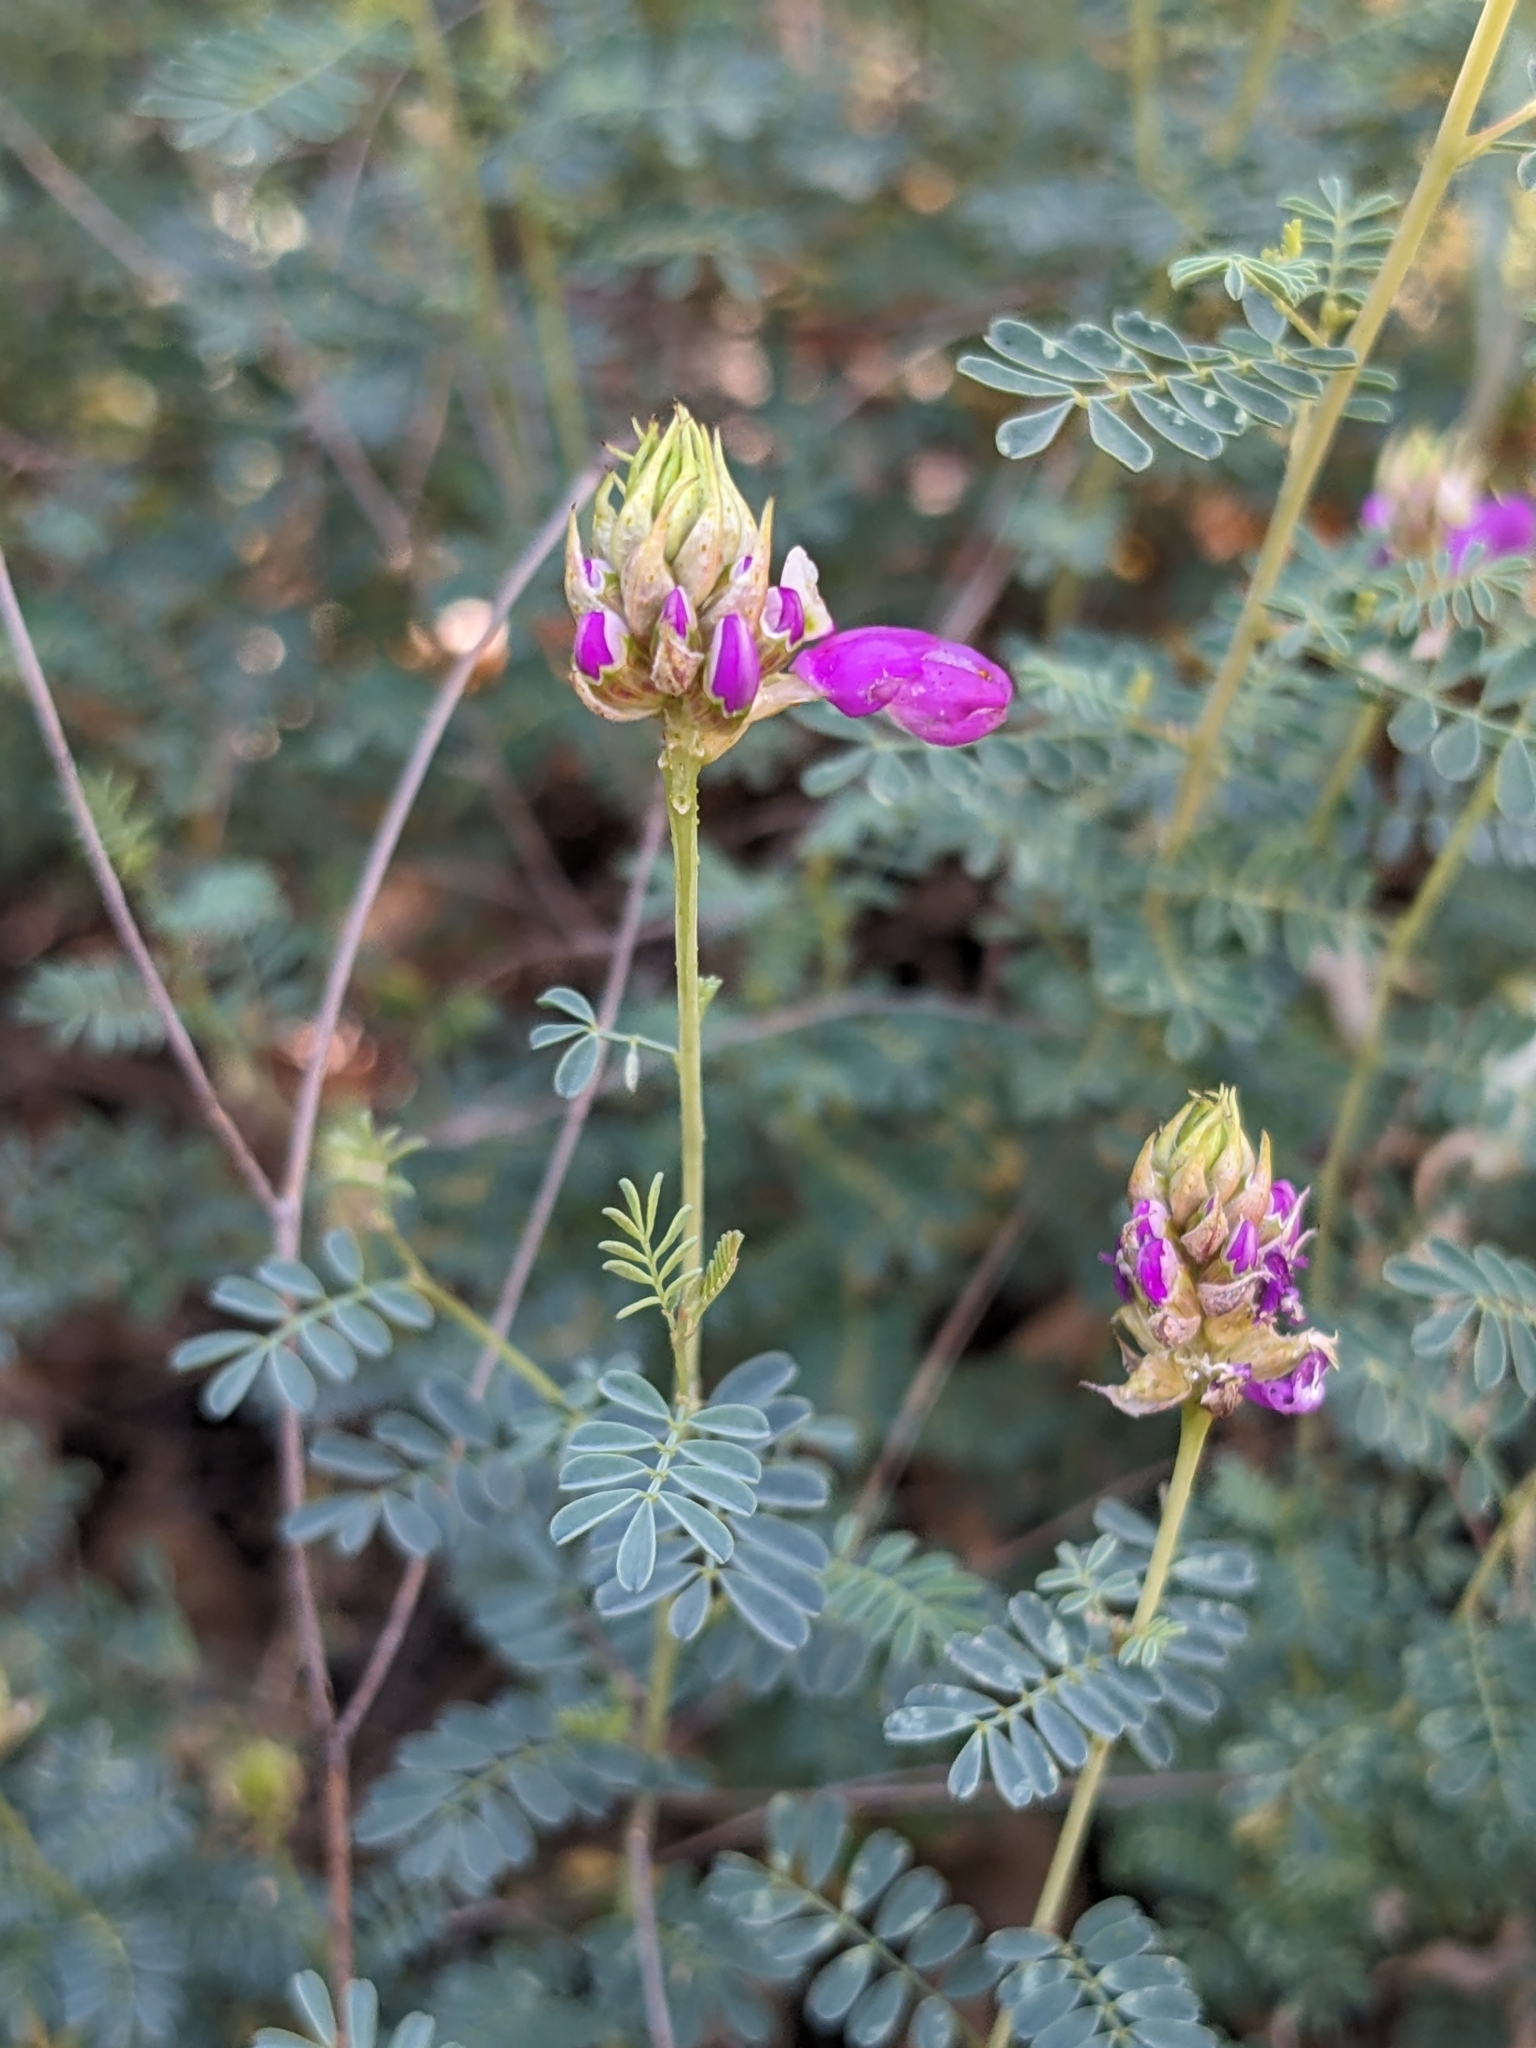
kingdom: Plantae
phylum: Tracheophyta
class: Magnoliopsida
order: Fabales
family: Fabaceae
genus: Dalea
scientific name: Dalea frutescens
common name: Black dalea
